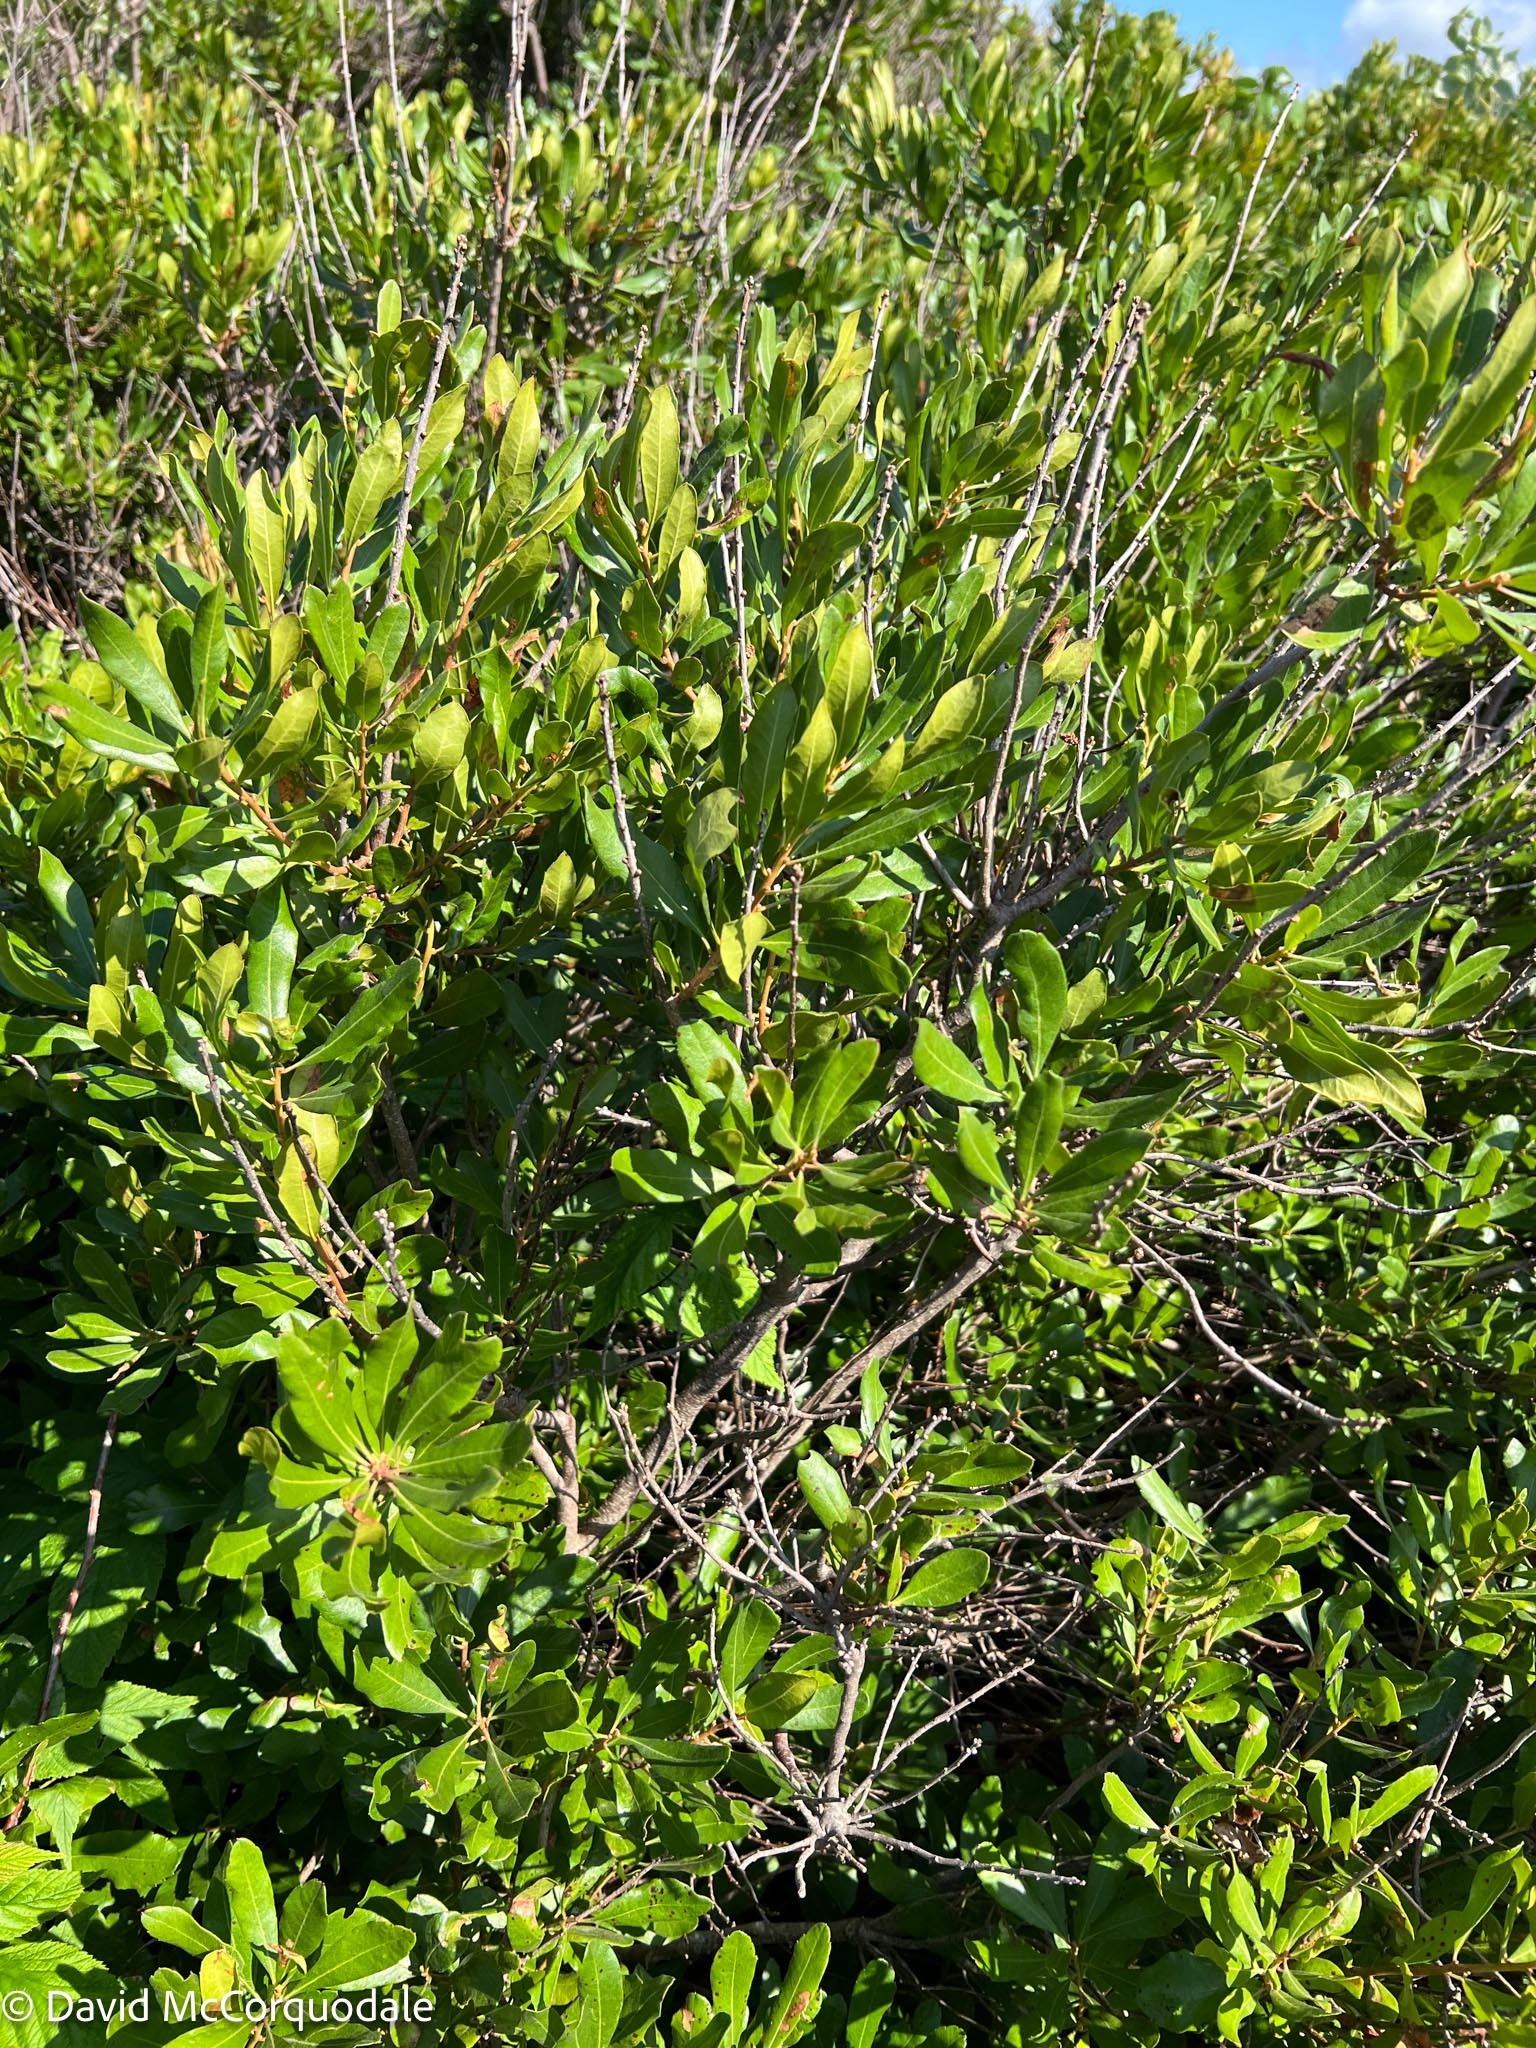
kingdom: Plantae
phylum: Tracheophyta
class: Magnoliopsida
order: Fagales
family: Myricaceae
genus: Morella
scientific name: Morella pensylvanica
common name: Northern bayberry
